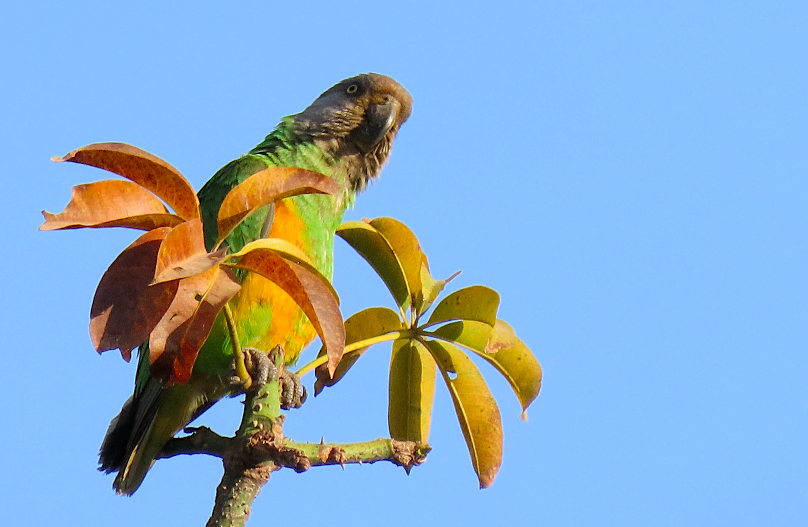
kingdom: Animalia
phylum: Chordata
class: Aves
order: Psittaciformes
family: Psittacidae
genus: Poicephalus
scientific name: Poicephalus senegalus
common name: Senegal parrot
